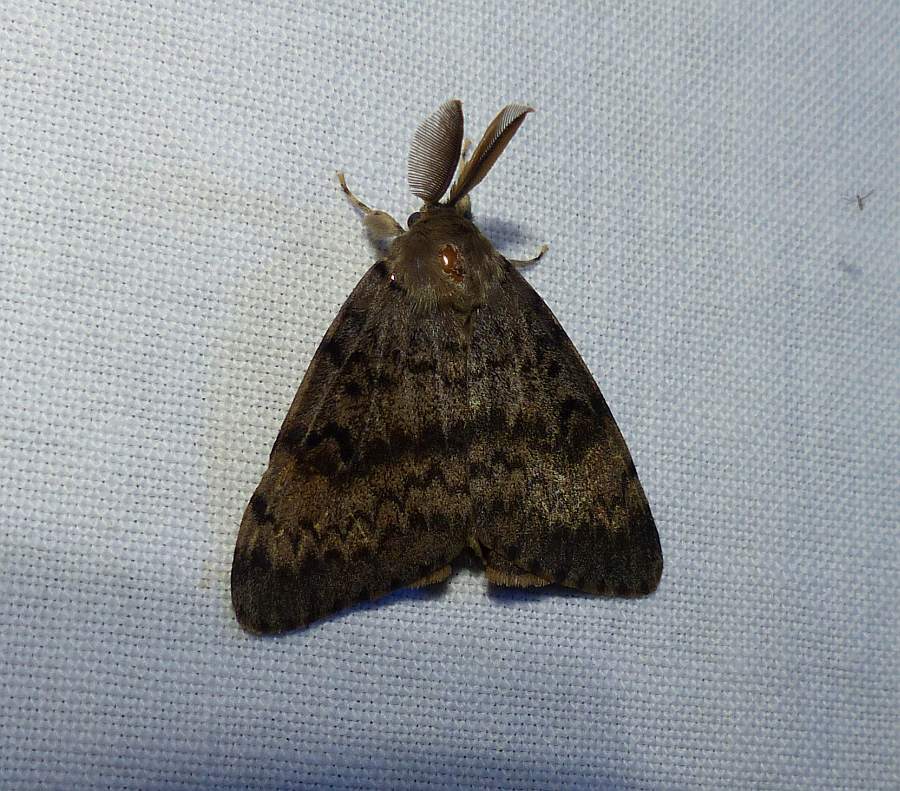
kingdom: Animalia
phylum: Arthropoda
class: Insecta
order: Lepidoptera
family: Erebidae
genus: Lymantria
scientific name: Lymantria dispar
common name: Gypsy moth
